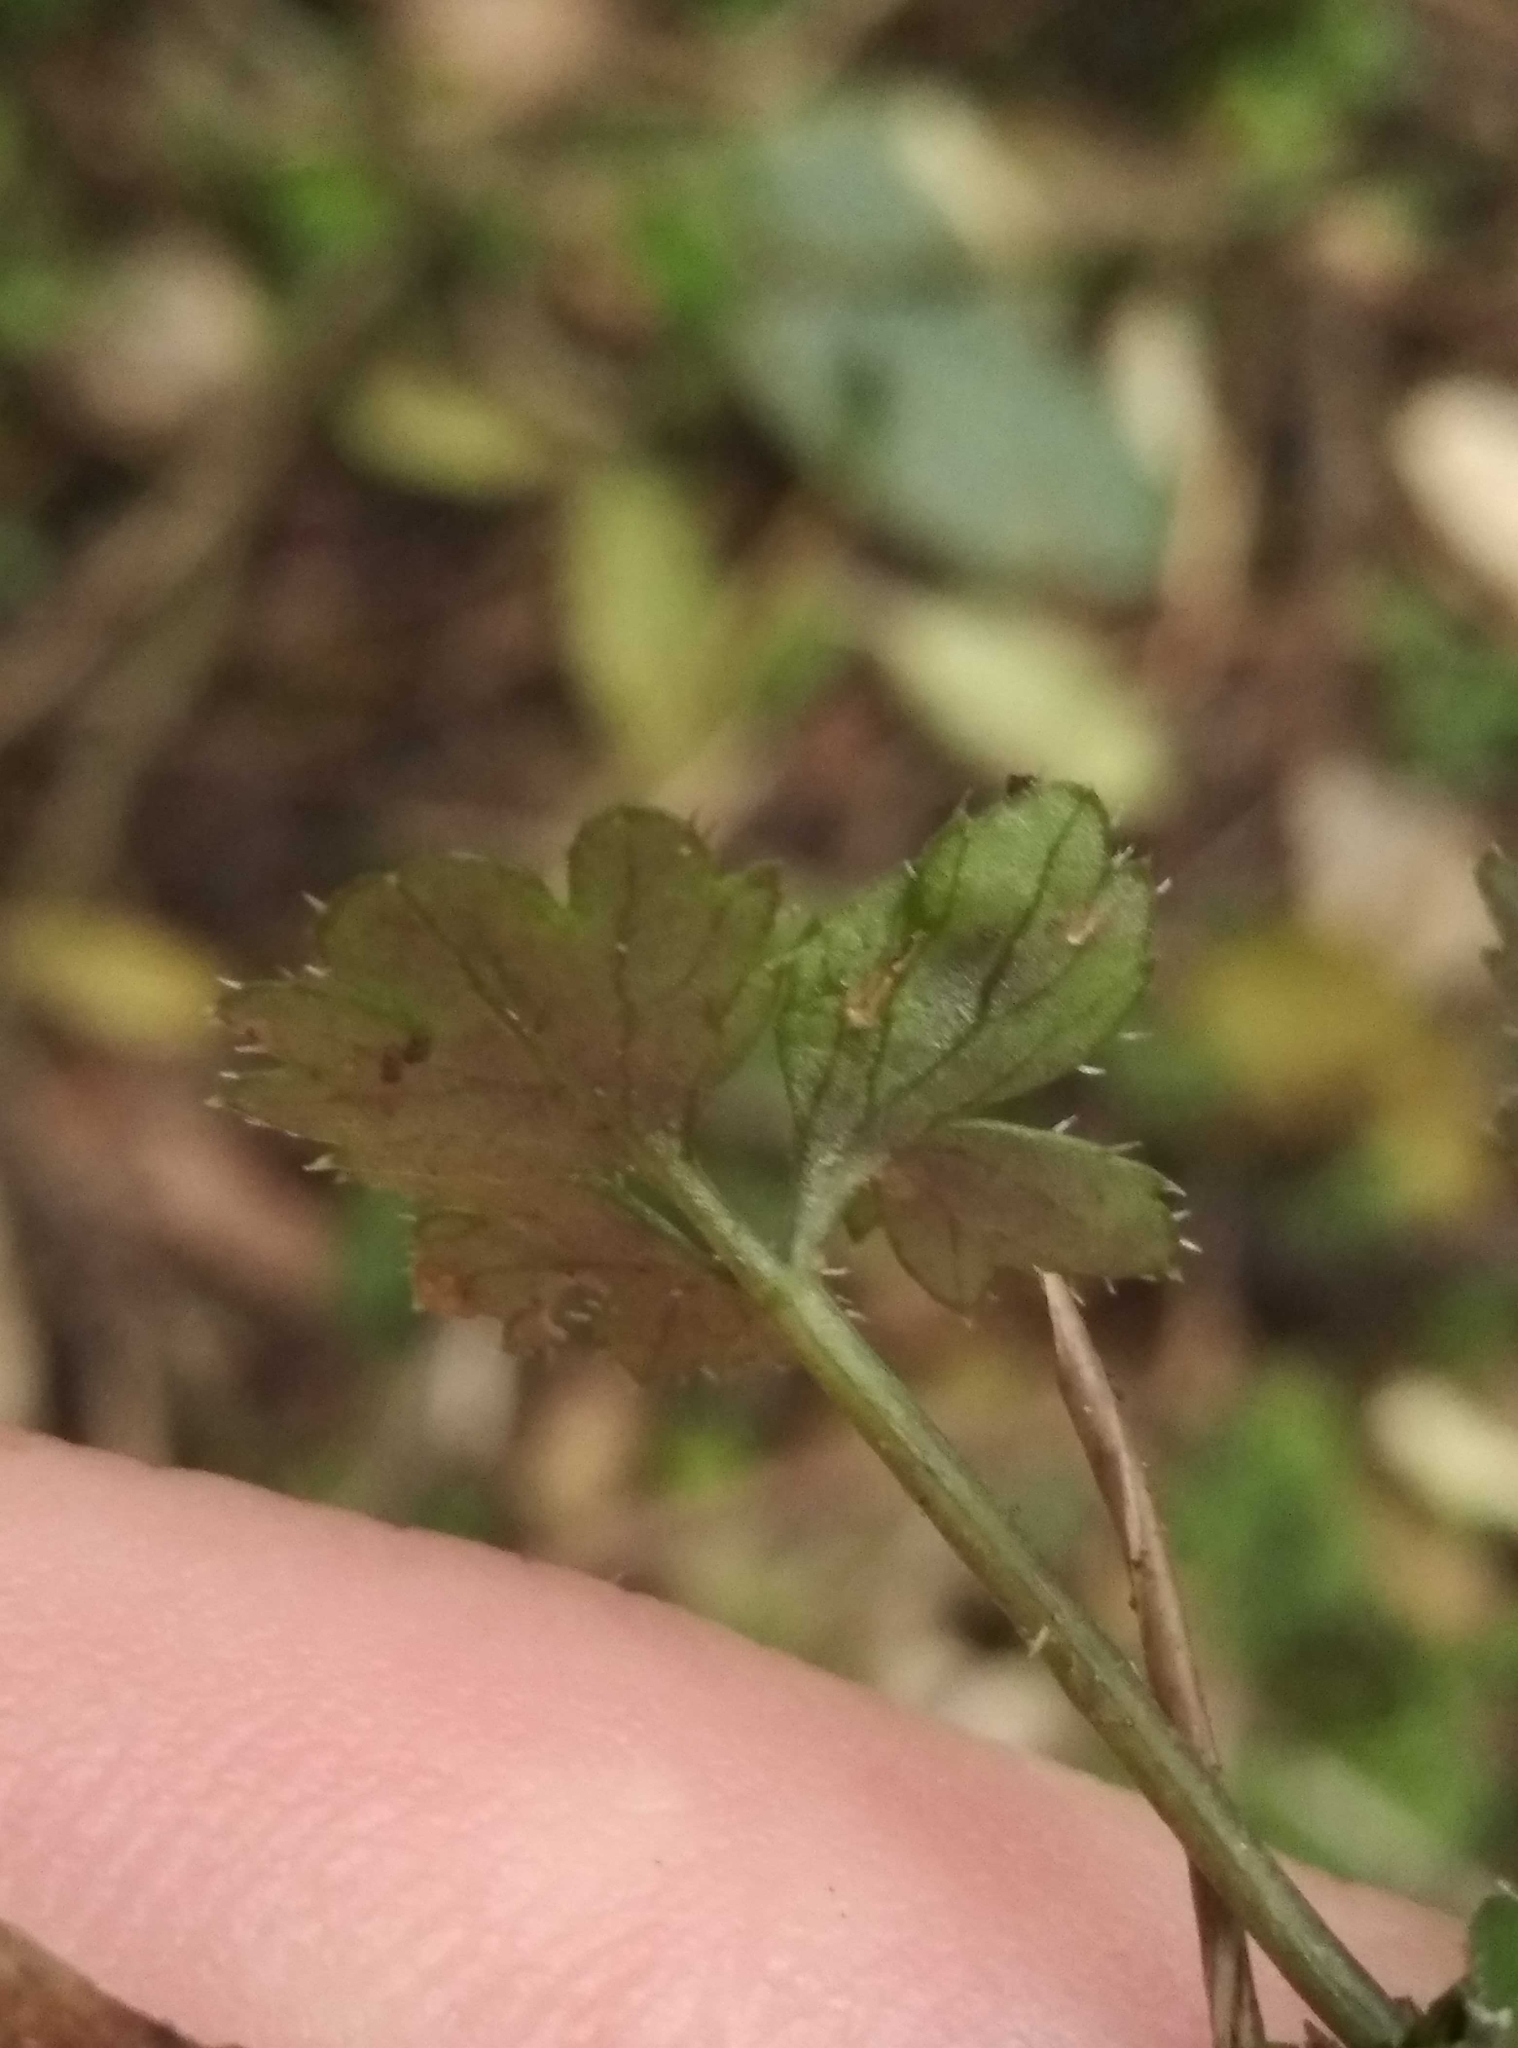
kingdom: Plantae
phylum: Tracheophyta
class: Magnoliopsida
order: Apiales
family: Apiaceae
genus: Azorella
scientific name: Azorella hookeri
